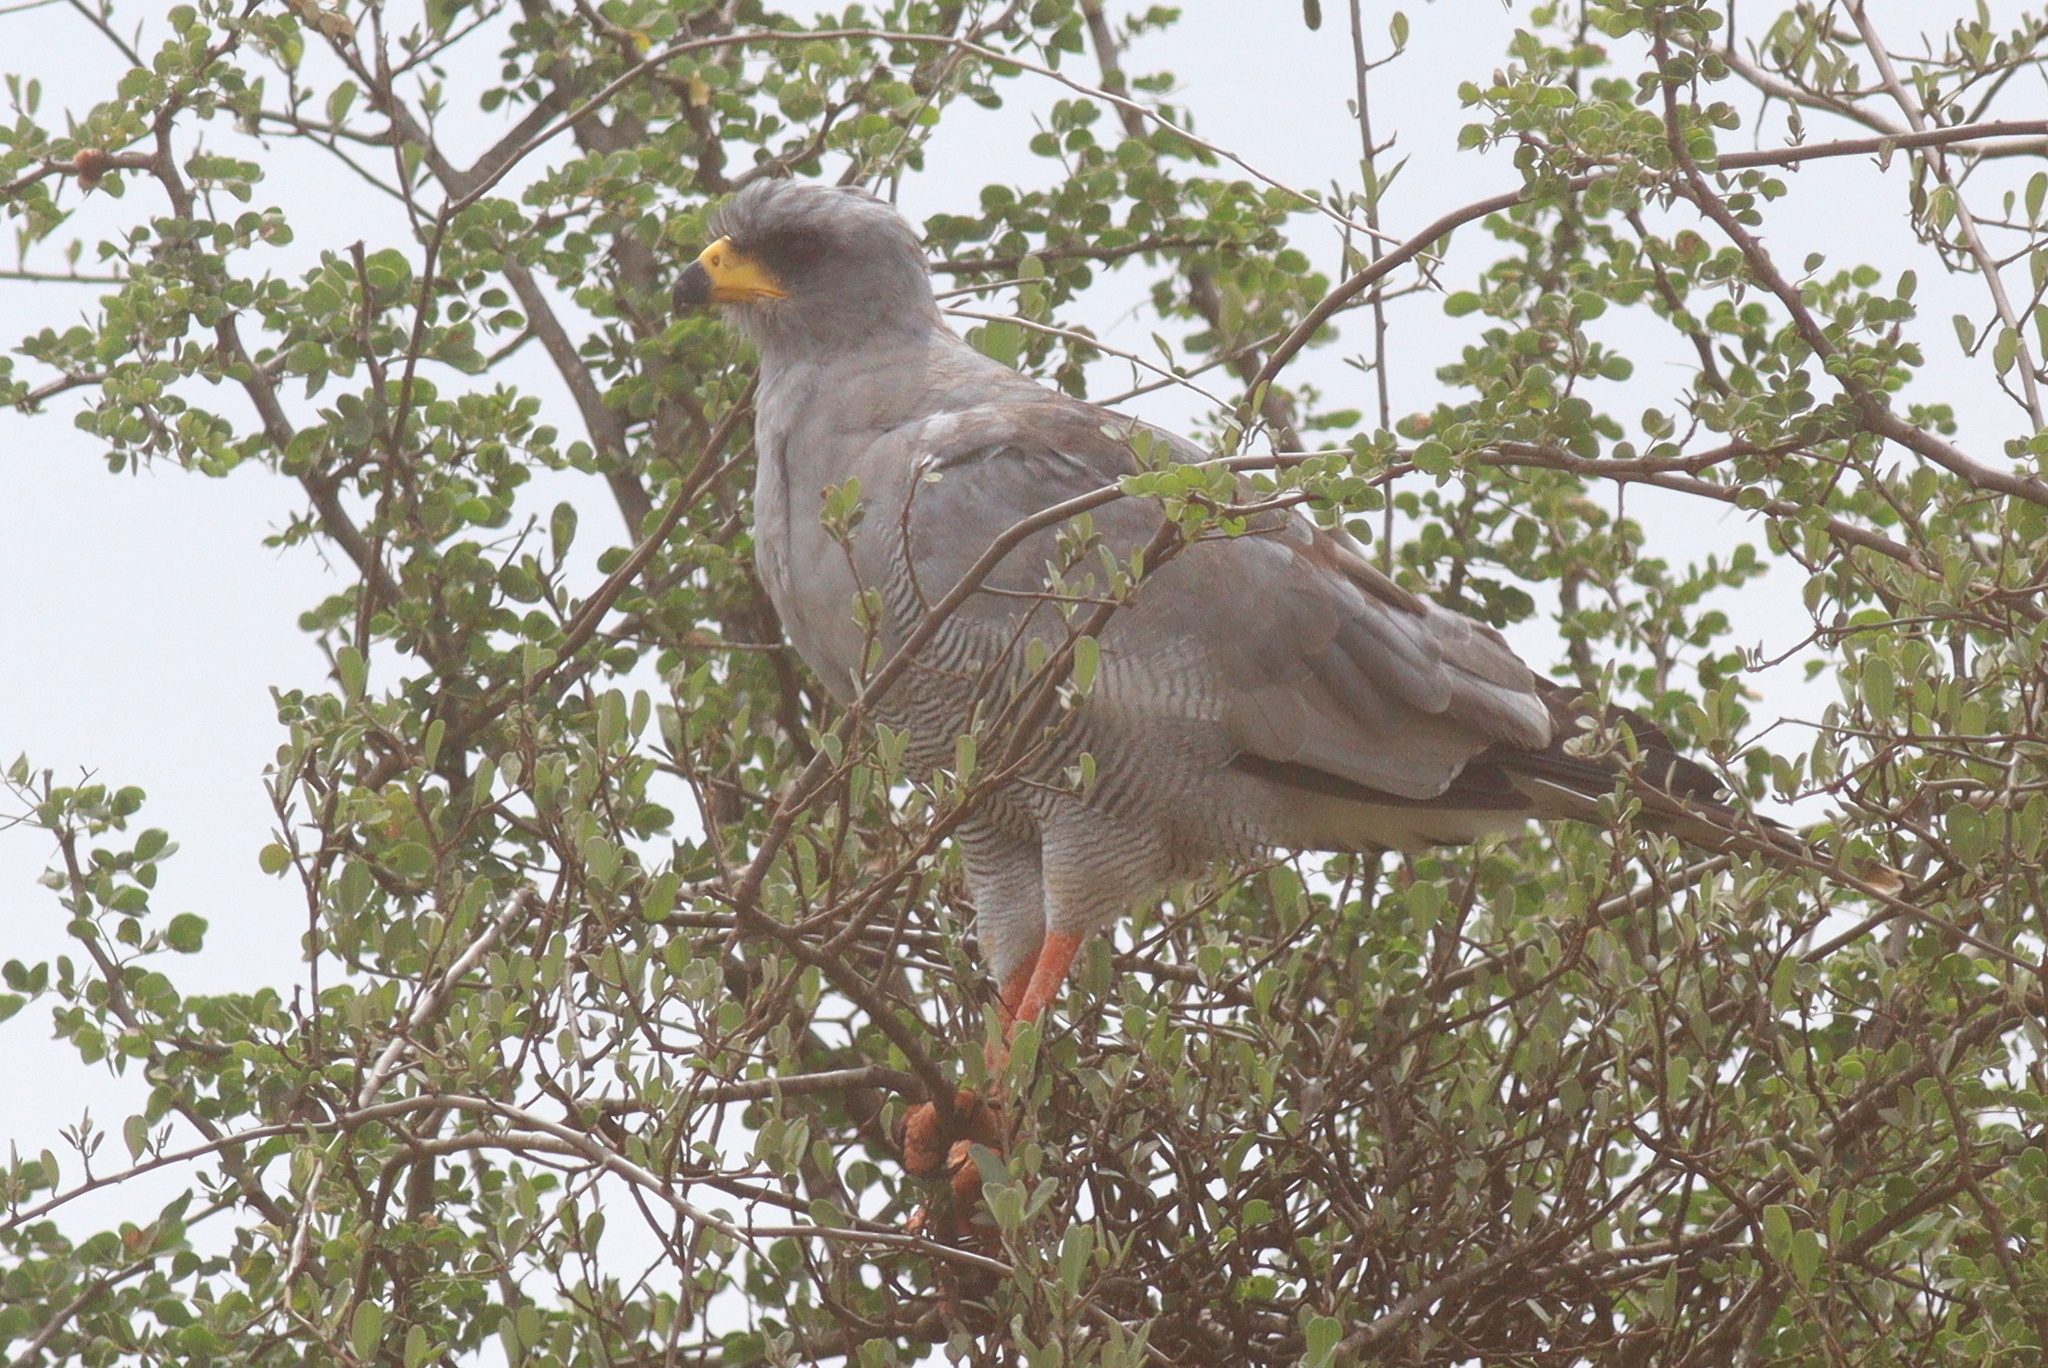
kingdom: Animalia
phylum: Chordata
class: Aves
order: Accipitriformes
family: Accipitridae
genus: Melierax
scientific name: Melierax poliopterus
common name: Eastern chanting goshawk
